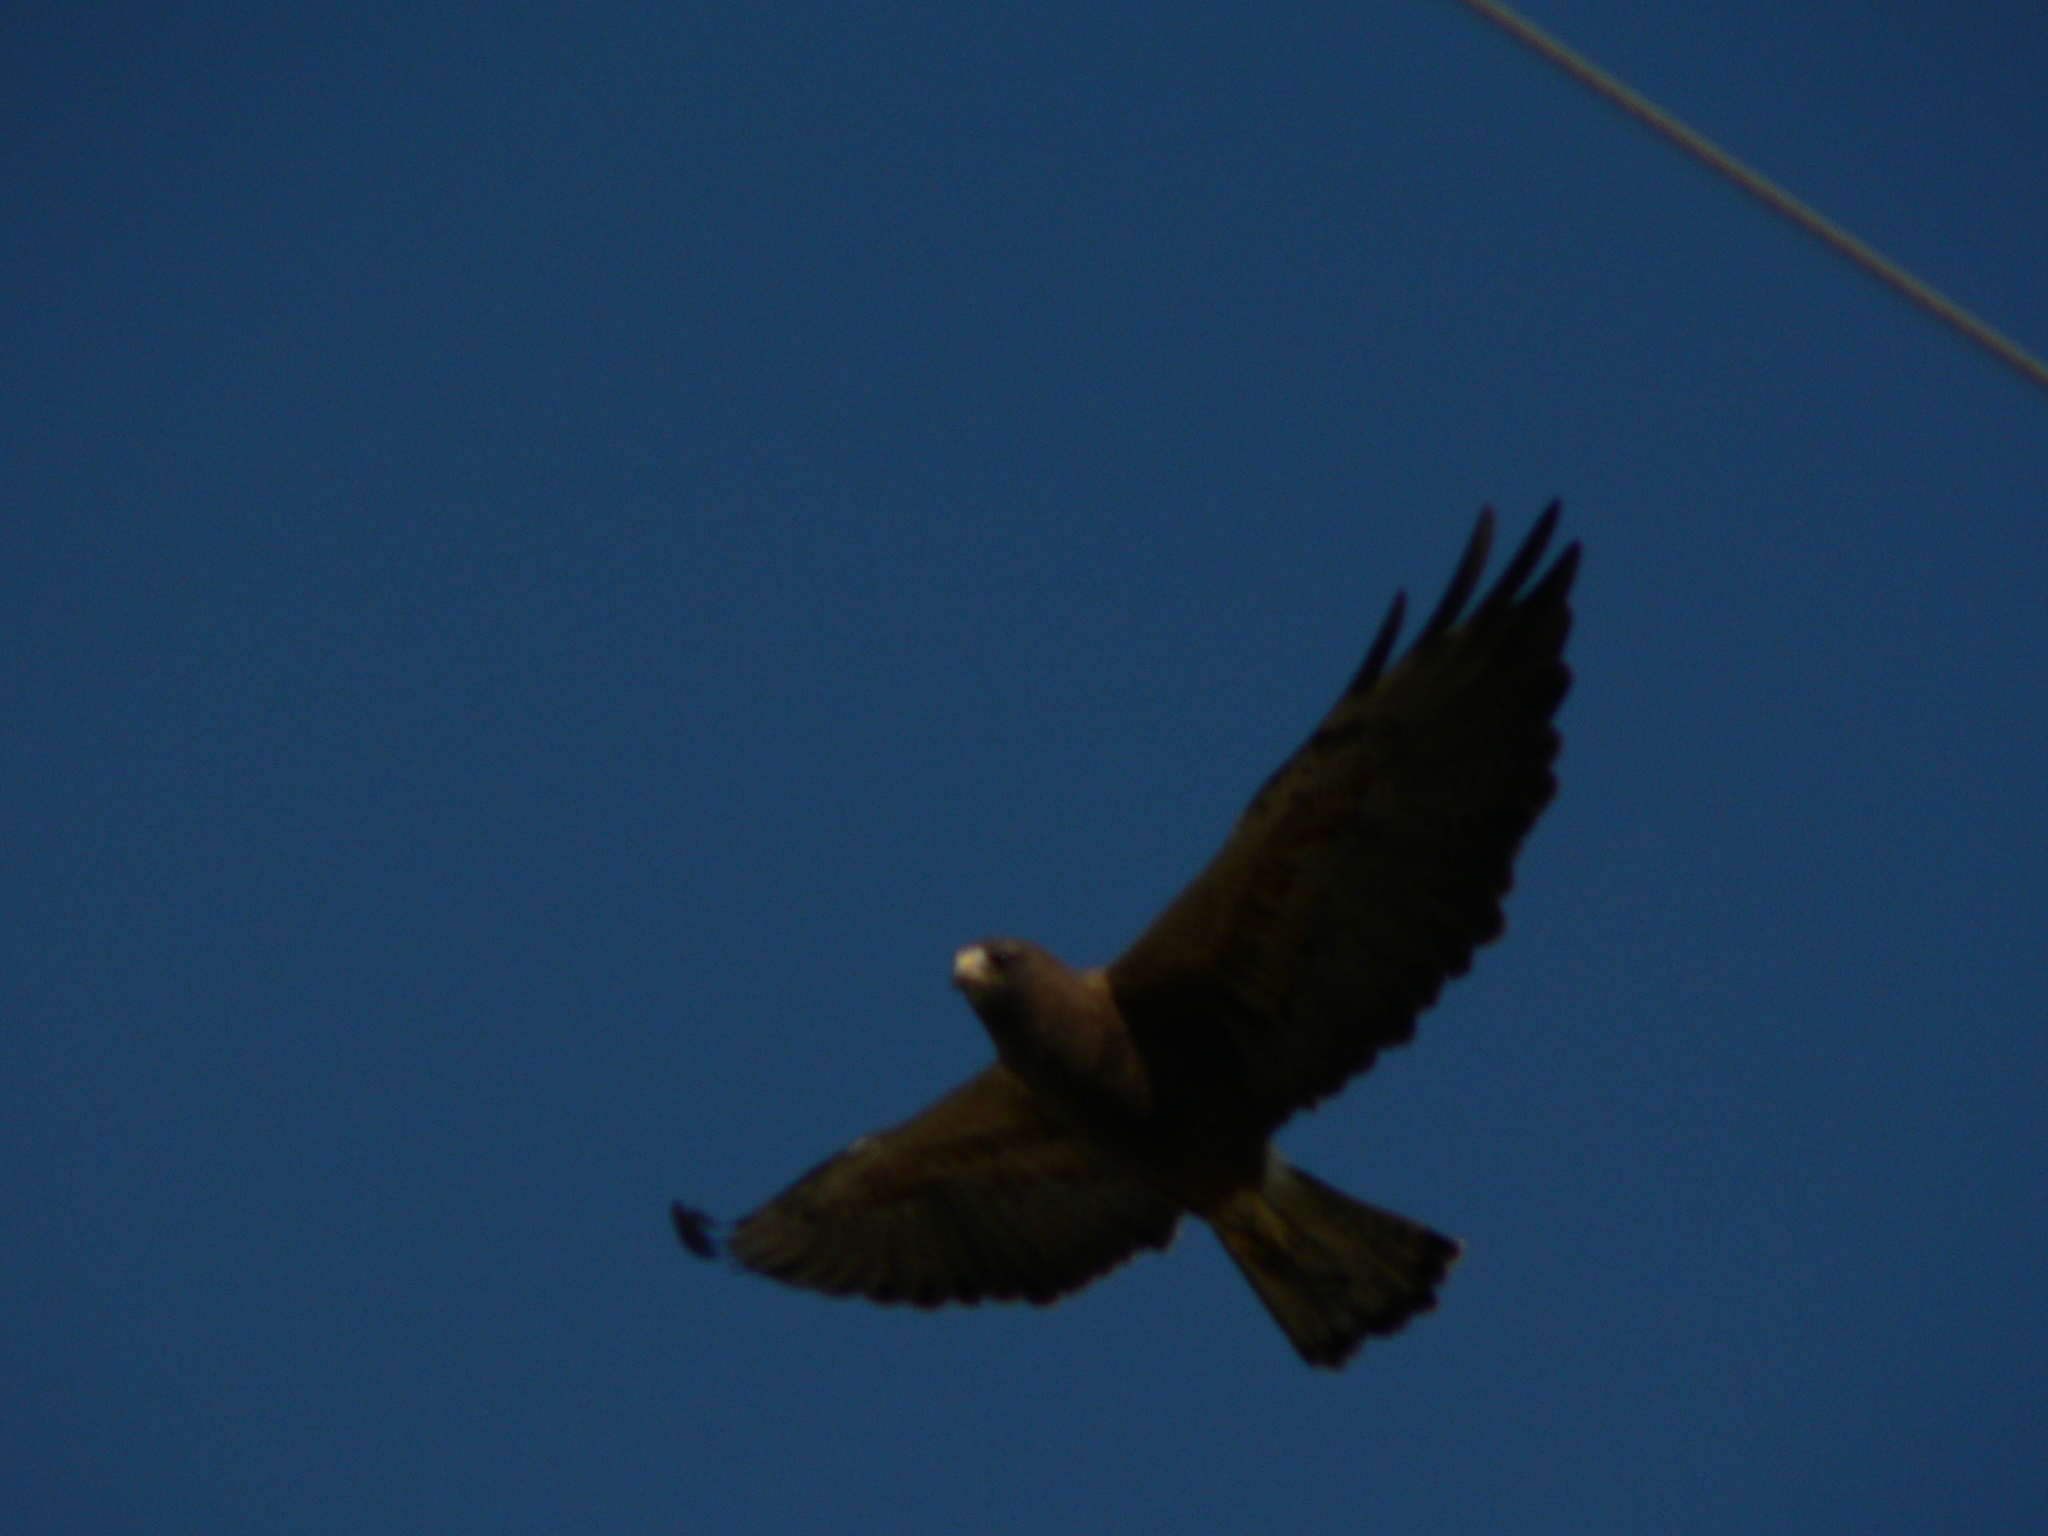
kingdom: Animalia
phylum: Chordata
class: Aves
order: Accipitriformes
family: Accipitridae
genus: Buteo
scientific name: Buteo swainsoni
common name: Swainson's hawk
